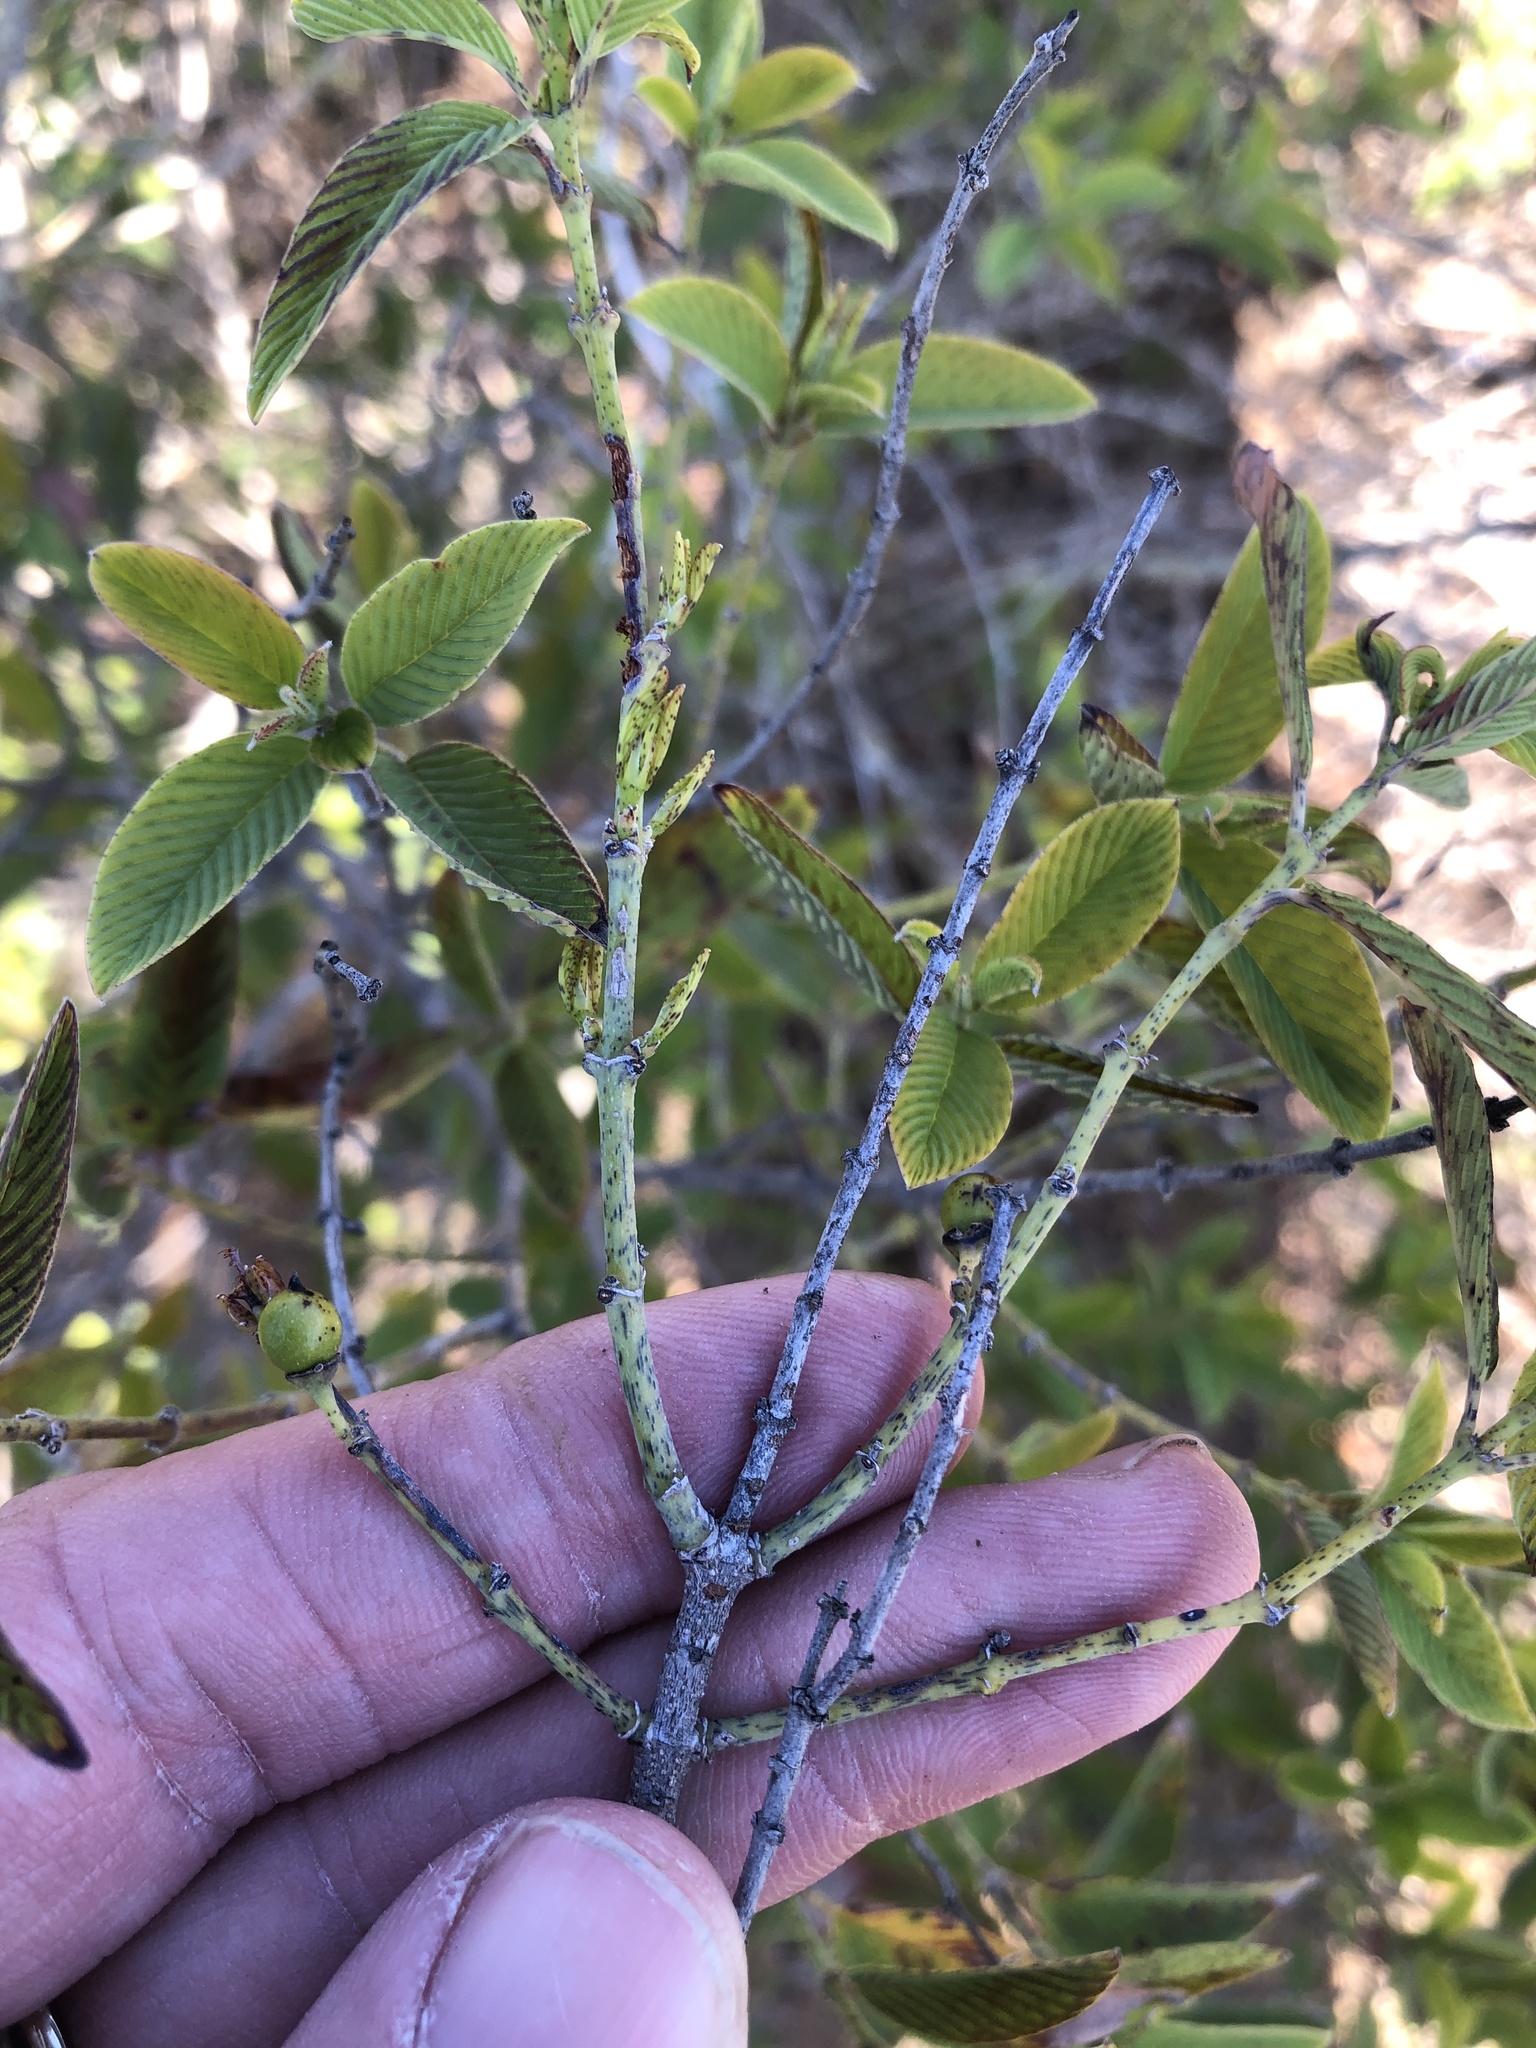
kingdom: Plantae
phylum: Tracheophyta
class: Magnoliopsida
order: Rosales
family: Rhamnaceae
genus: Karwinskia
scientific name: Karwinskia humboldtiana
